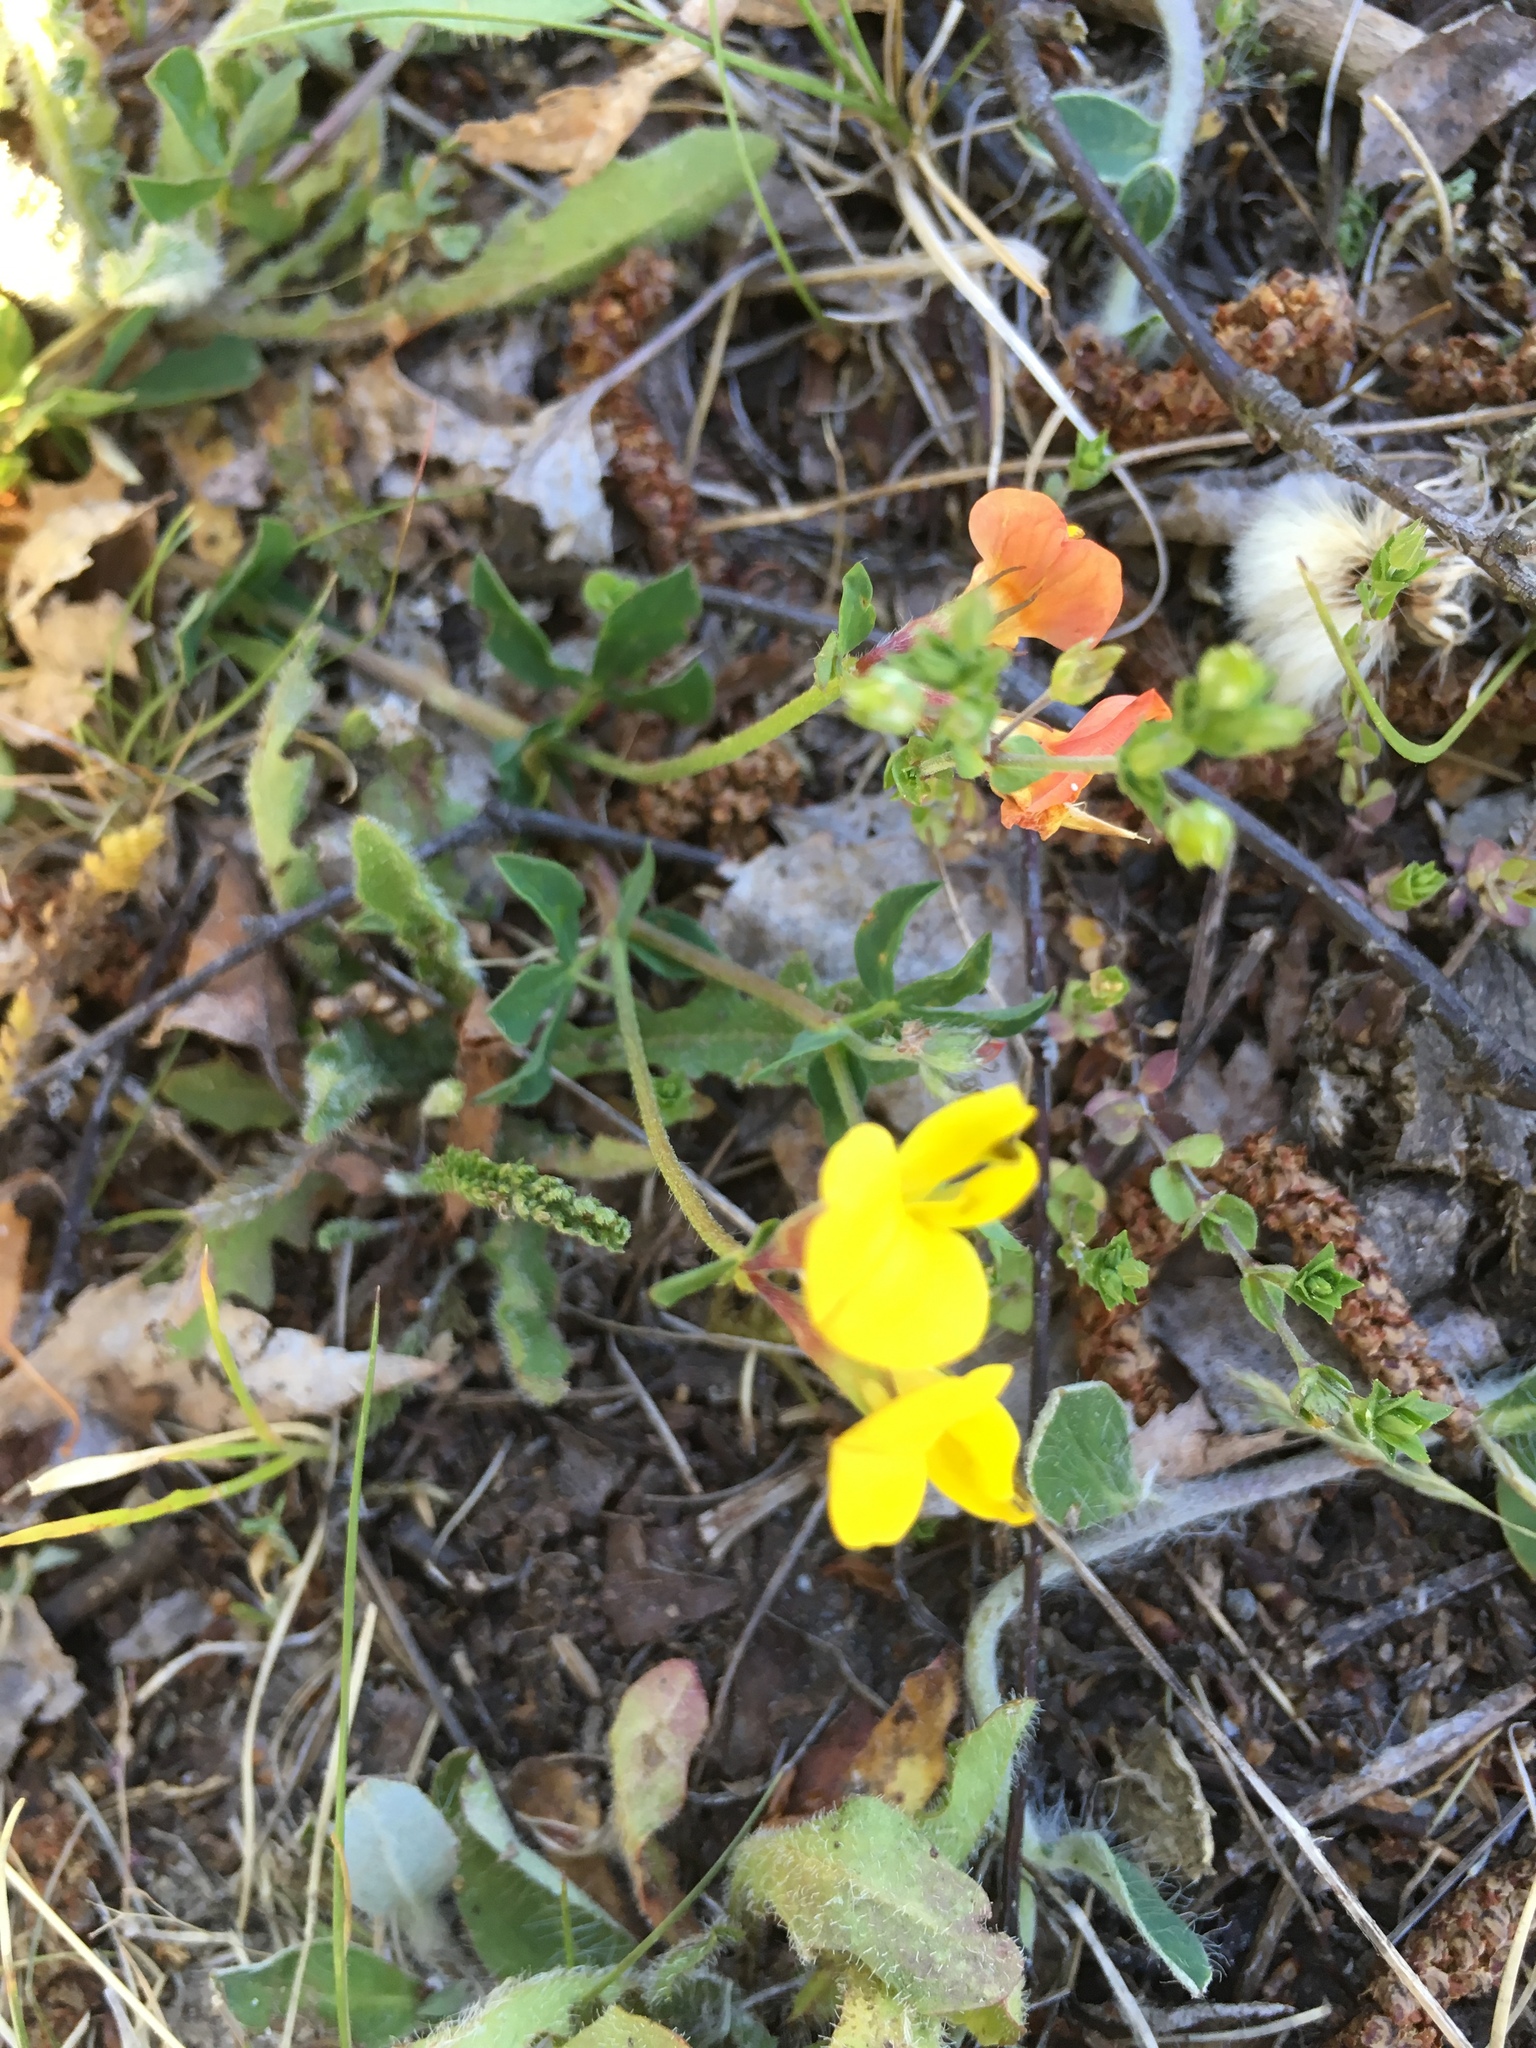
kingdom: Plantae
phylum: Tracheophyta
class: Magnoliopsida
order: Fabales
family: Fabaceae
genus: Lotus
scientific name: Lotus corniculatus
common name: Common bird's-foot-trefoil
